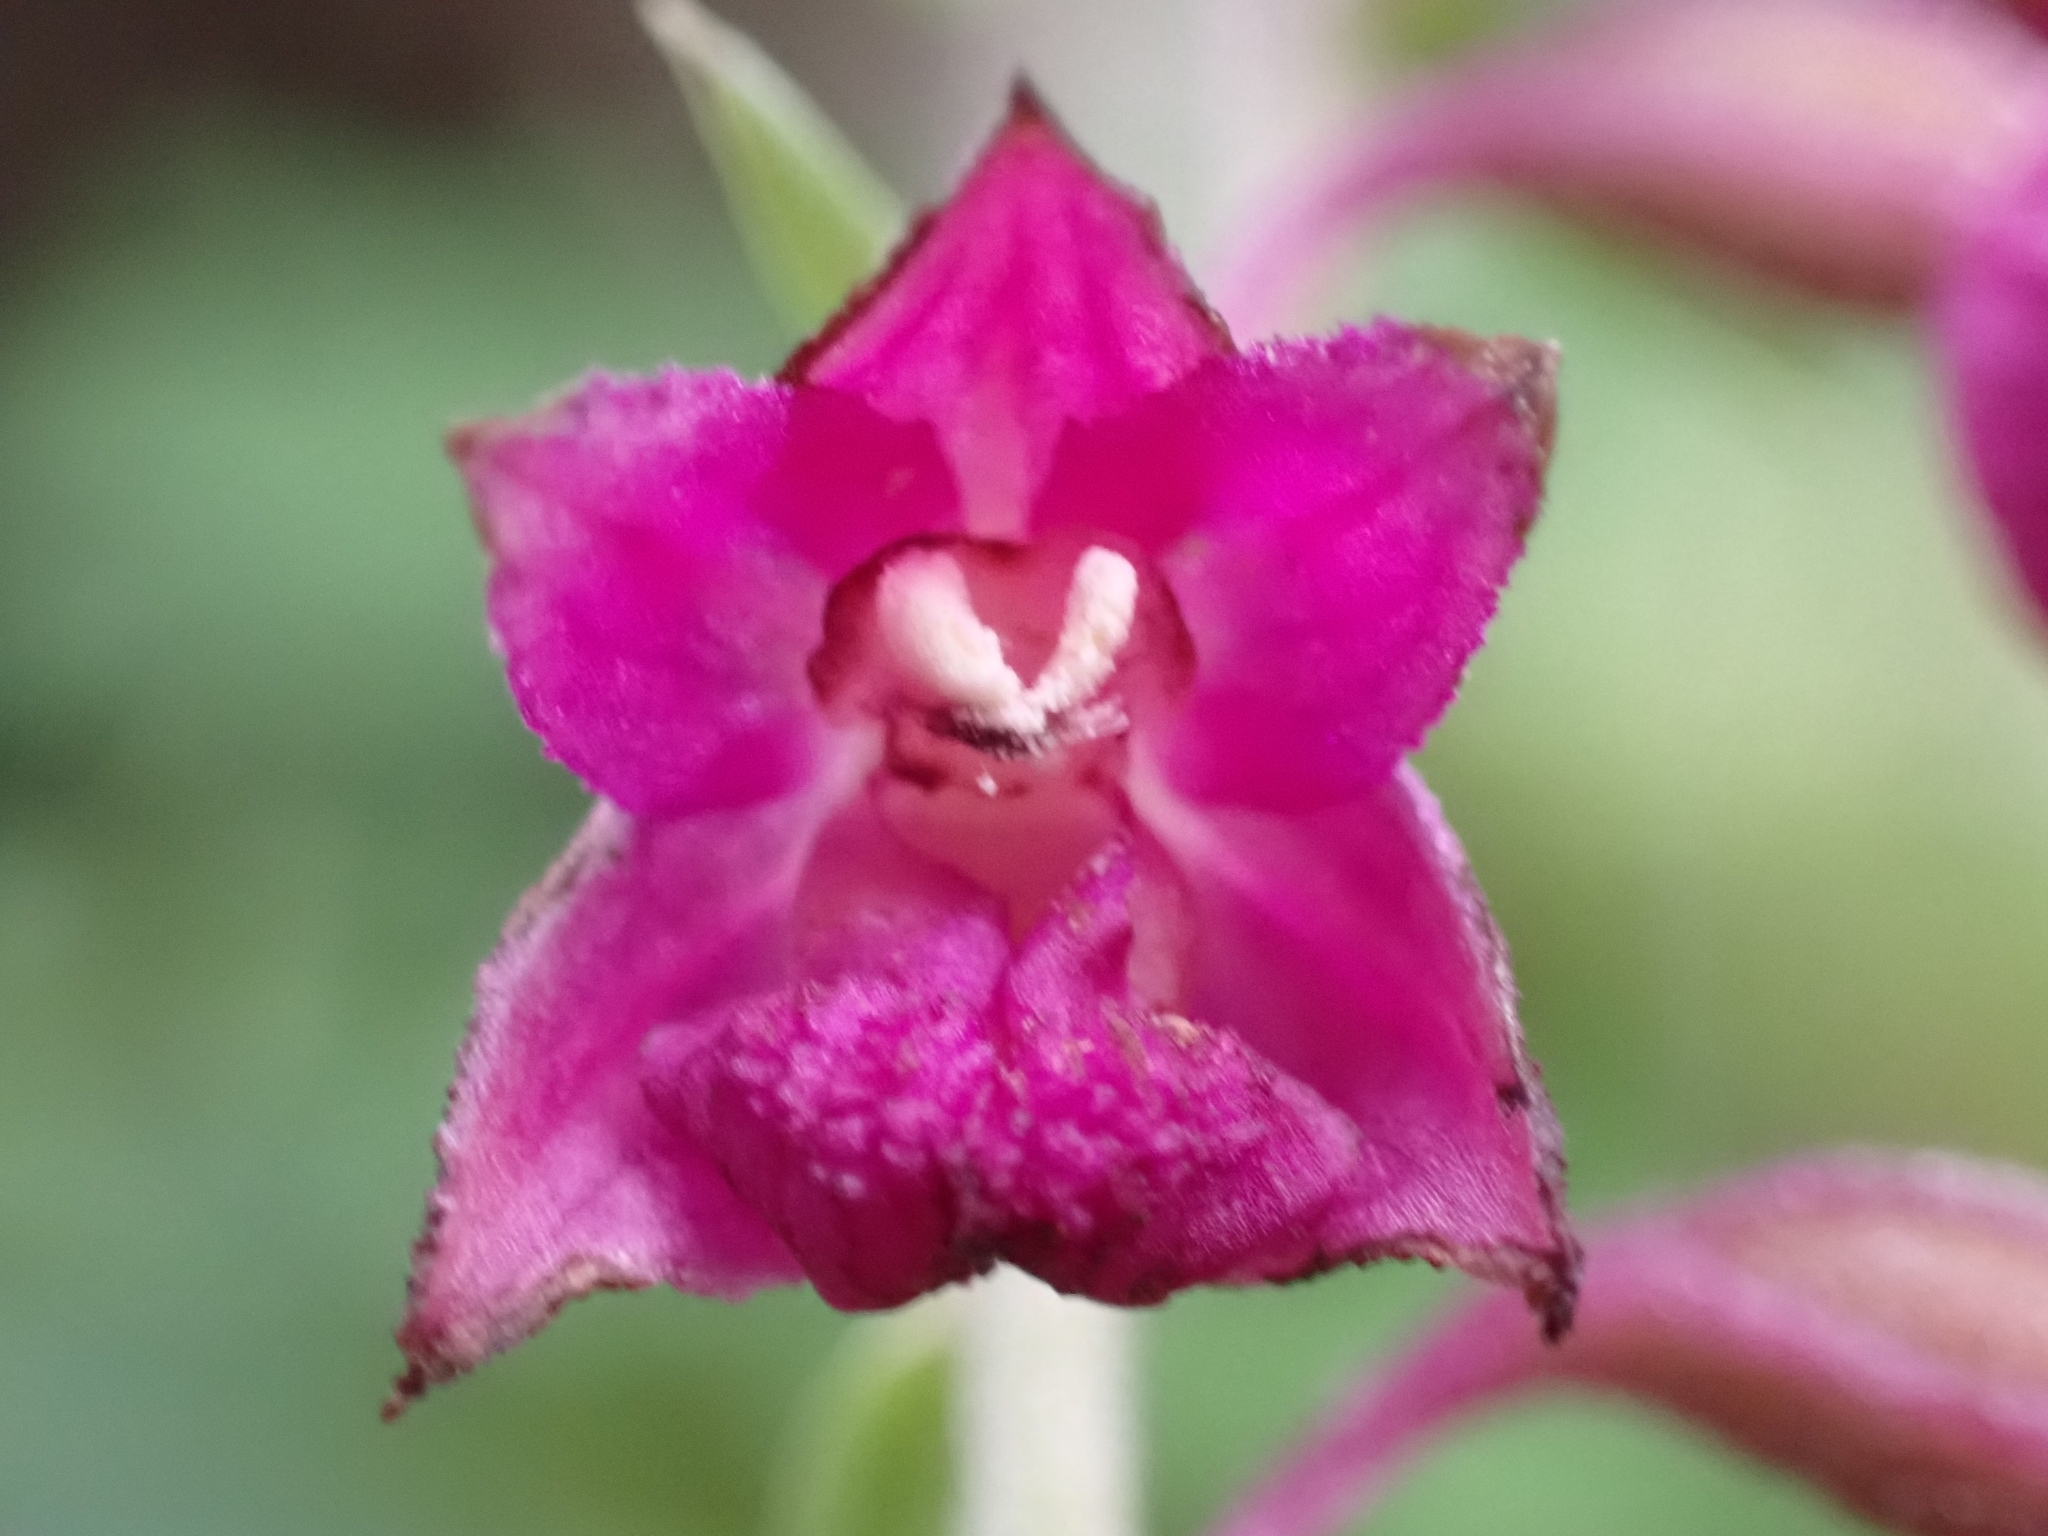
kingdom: Plantae
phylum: Tracheophyta
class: Liliopsida
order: Asparagales
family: Orchidaceae
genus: Epipactis
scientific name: Epipactis atrorubens
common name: Dark-red helleborine
